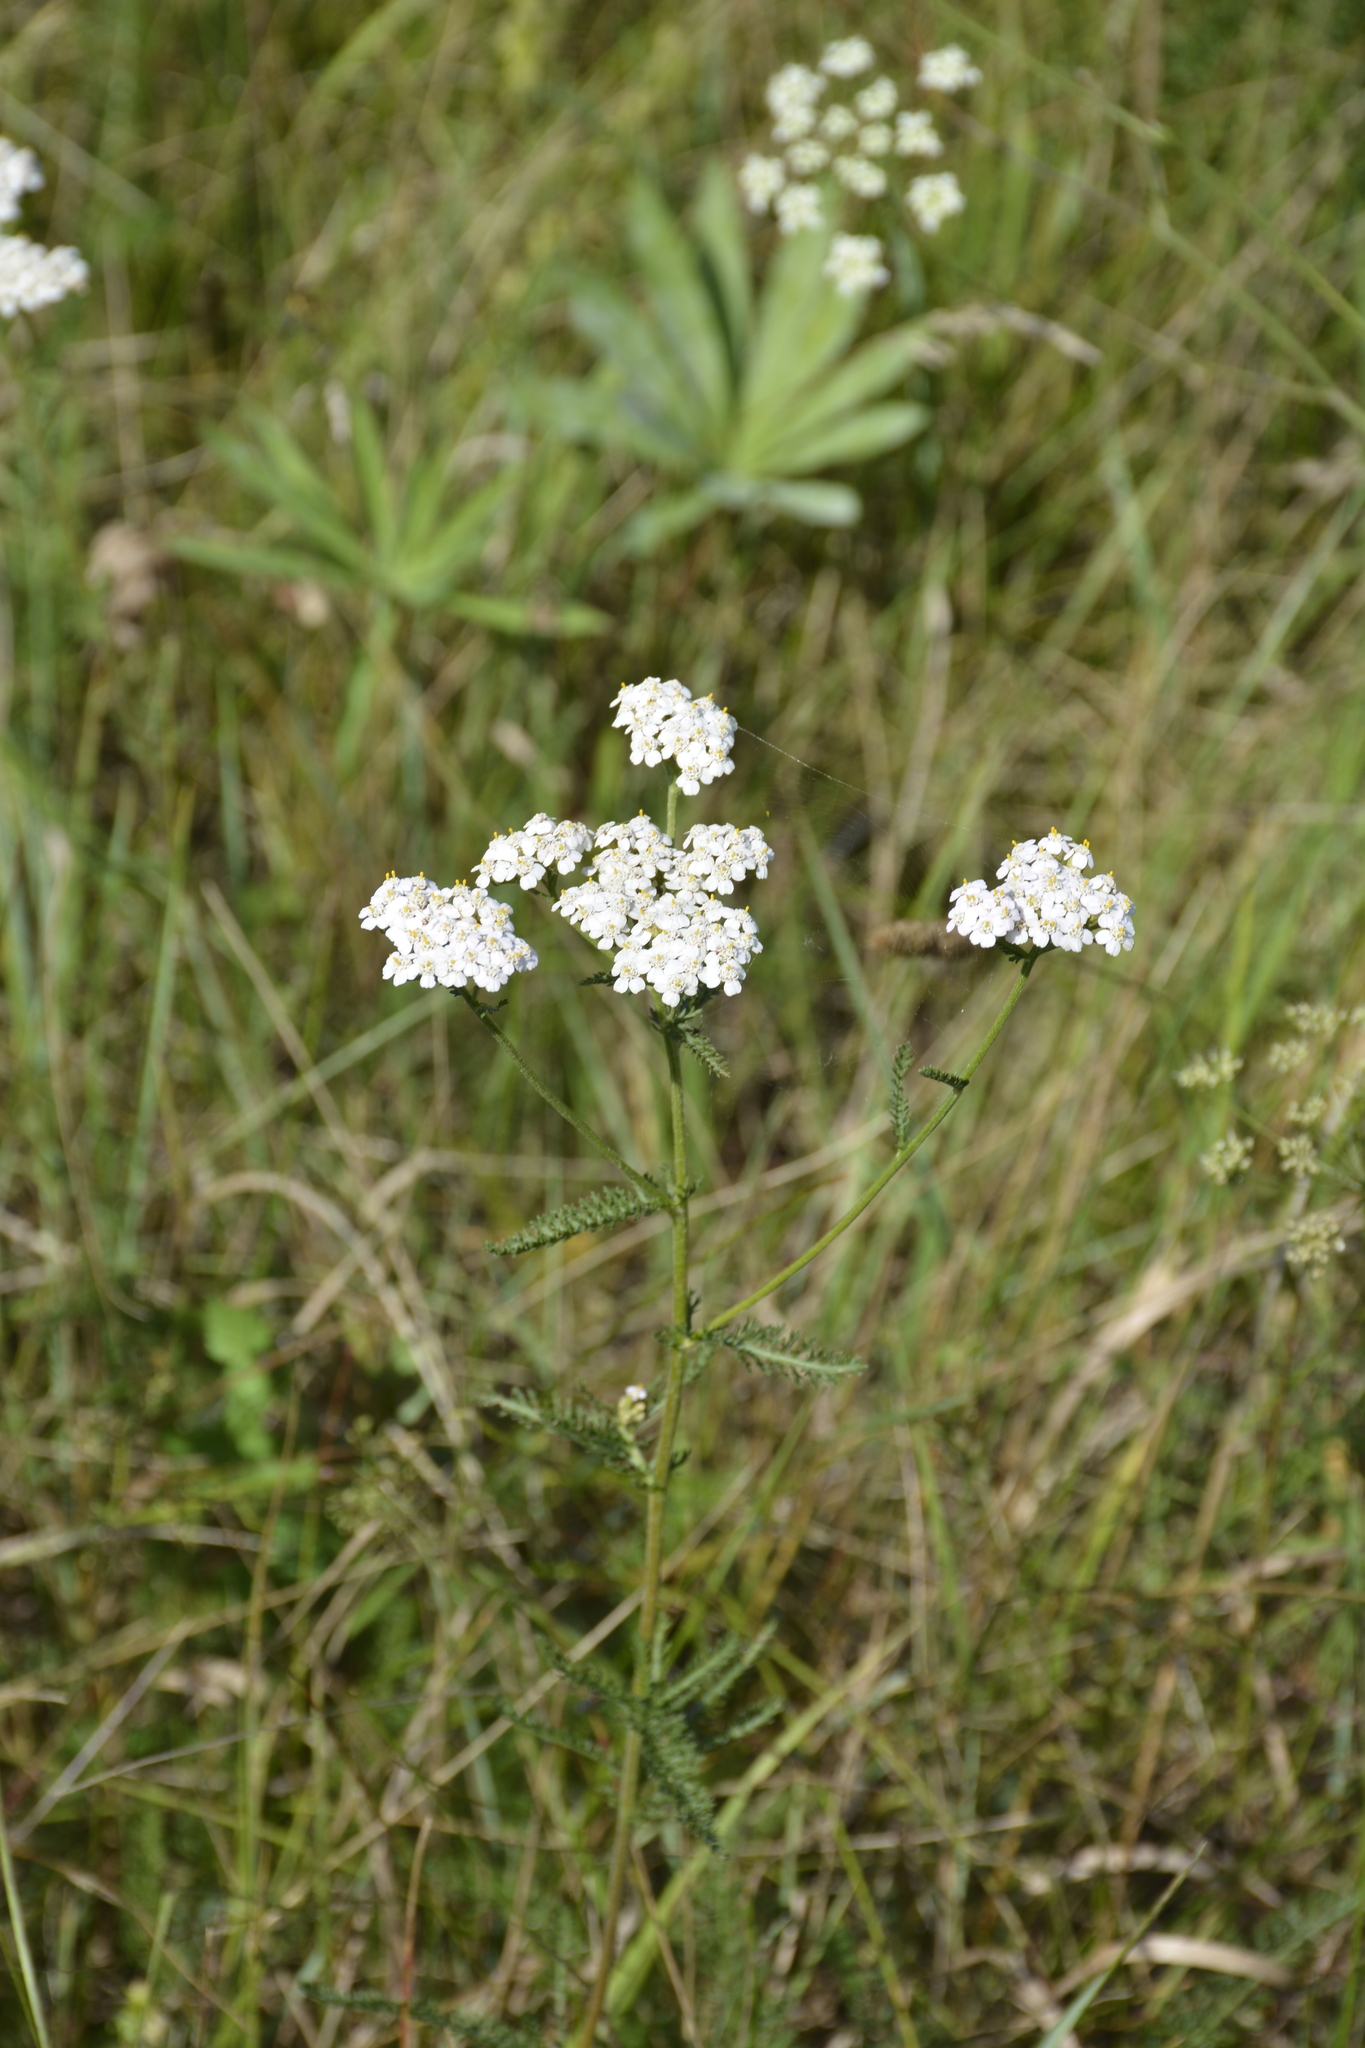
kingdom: Plantae
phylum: Tracheophyta
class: Magnoliopsida
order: Asterales
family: Asteraceae
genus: Achillea
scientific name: Achillea millefolium
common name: Yarrow
